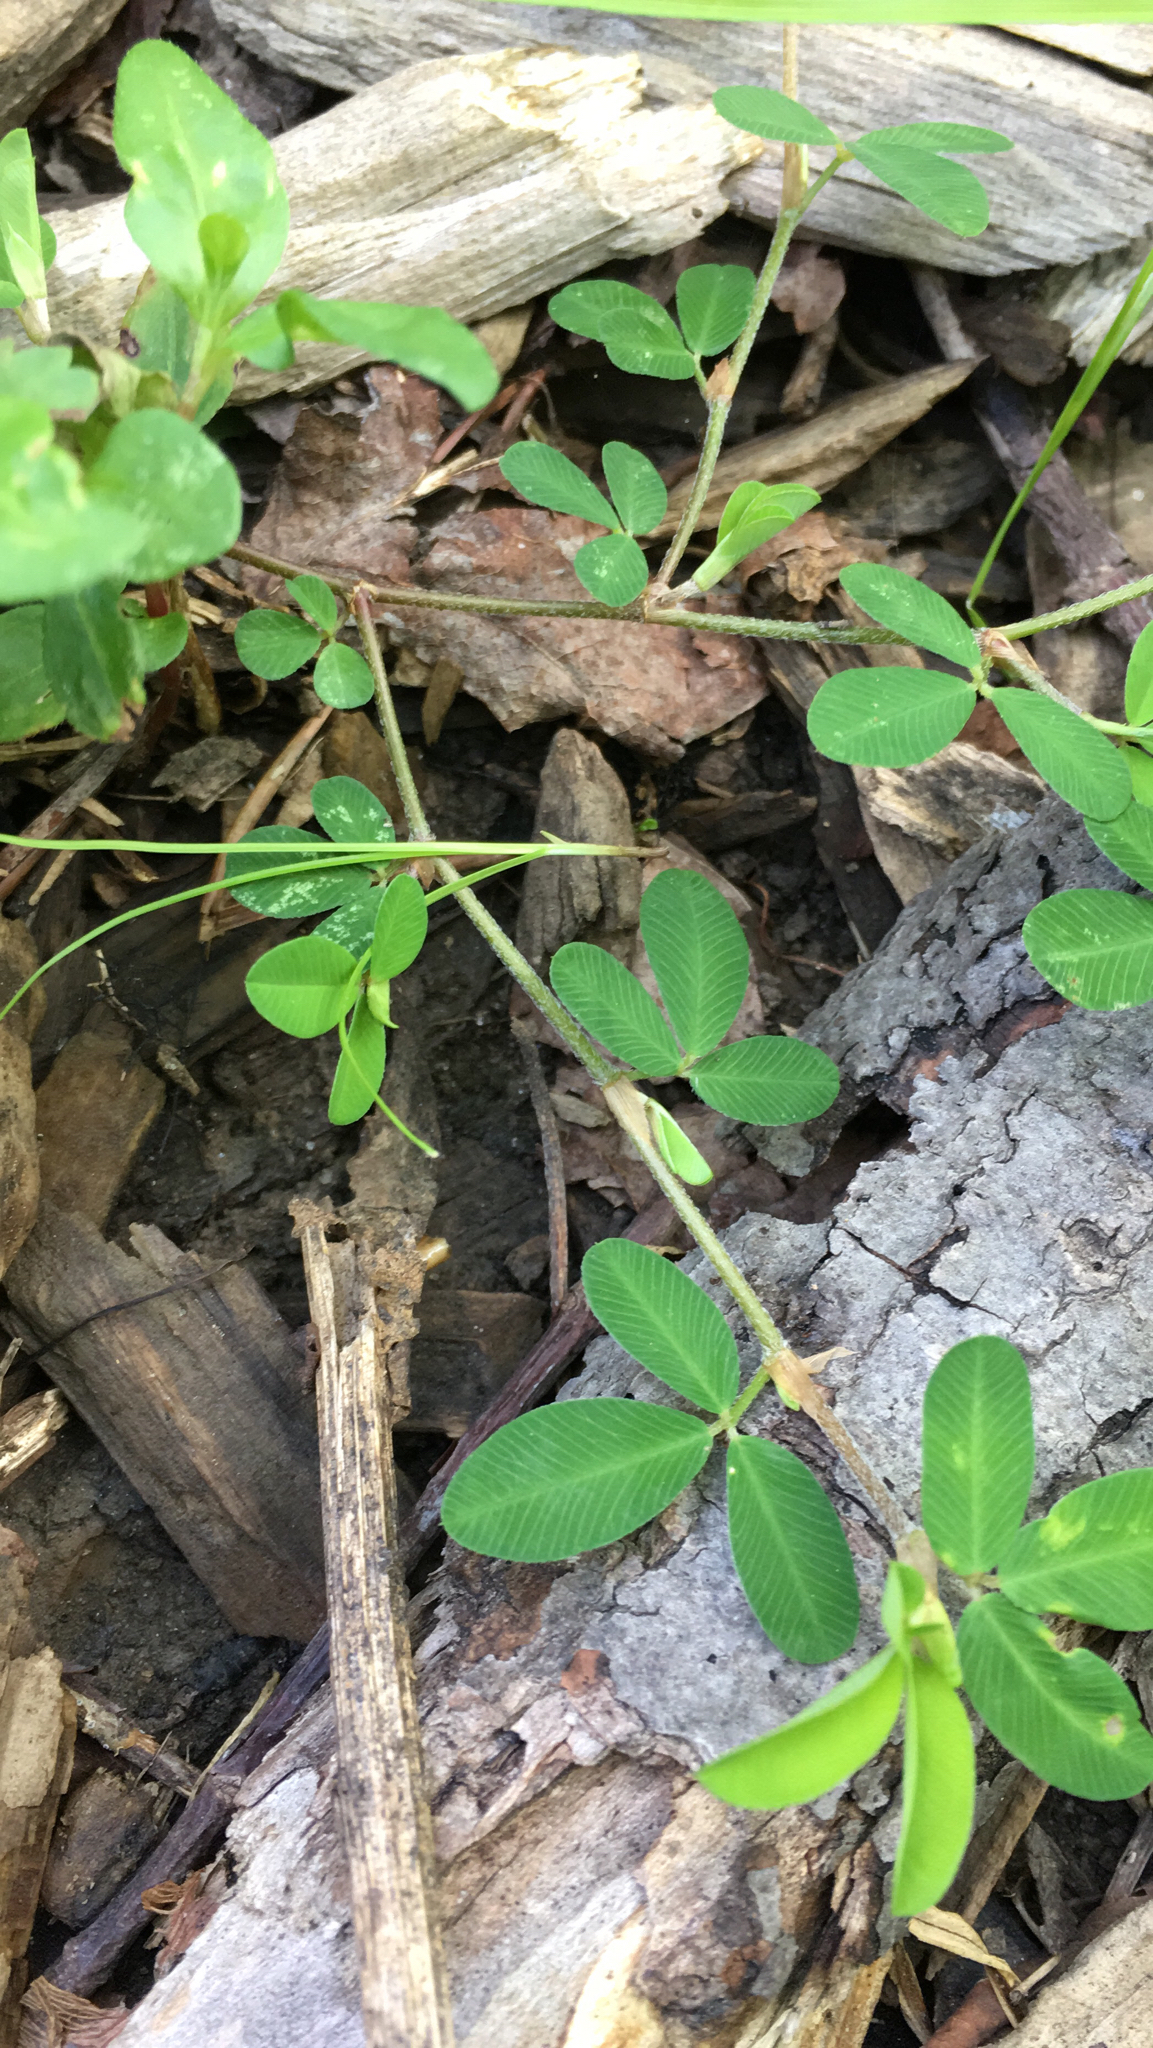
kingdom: Plantae
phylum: Tracheophyta
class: Magnoliopsida
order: Fabales
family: Fabaceae
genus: Kummerowia
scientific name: Kummerowia striata
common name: Japanese clover
